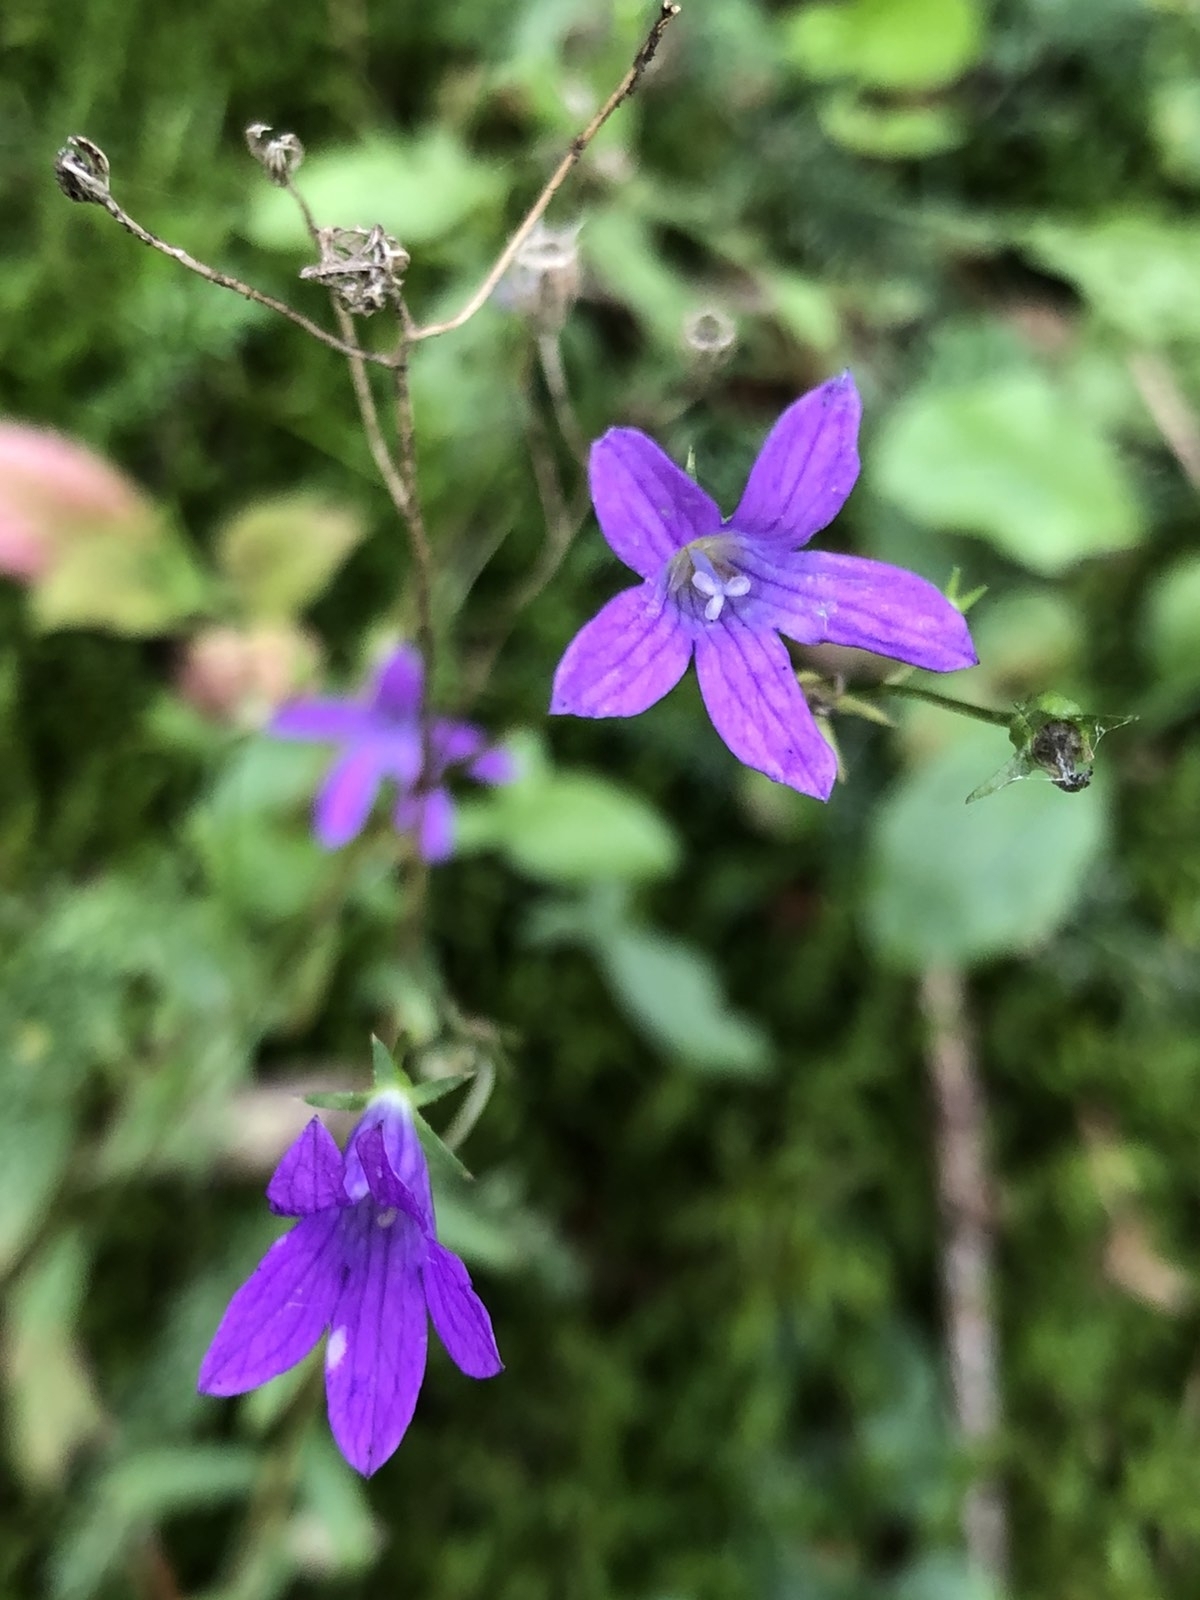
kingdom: Plantae
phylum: Tracheophyta
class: Magnoliopsida
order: Asterales
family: Campanulaceae
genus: Campanula
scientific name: Campanula patula
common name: Spreading bellflower
